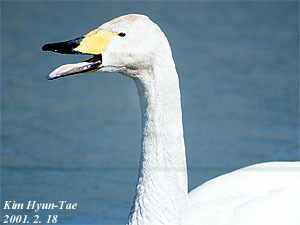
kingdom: Animalia
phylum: Chordata
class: Aves
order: Anseriformes
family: Anatidae
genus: Cygnus
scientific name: Cygnus cygnus
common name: Whooper swan
